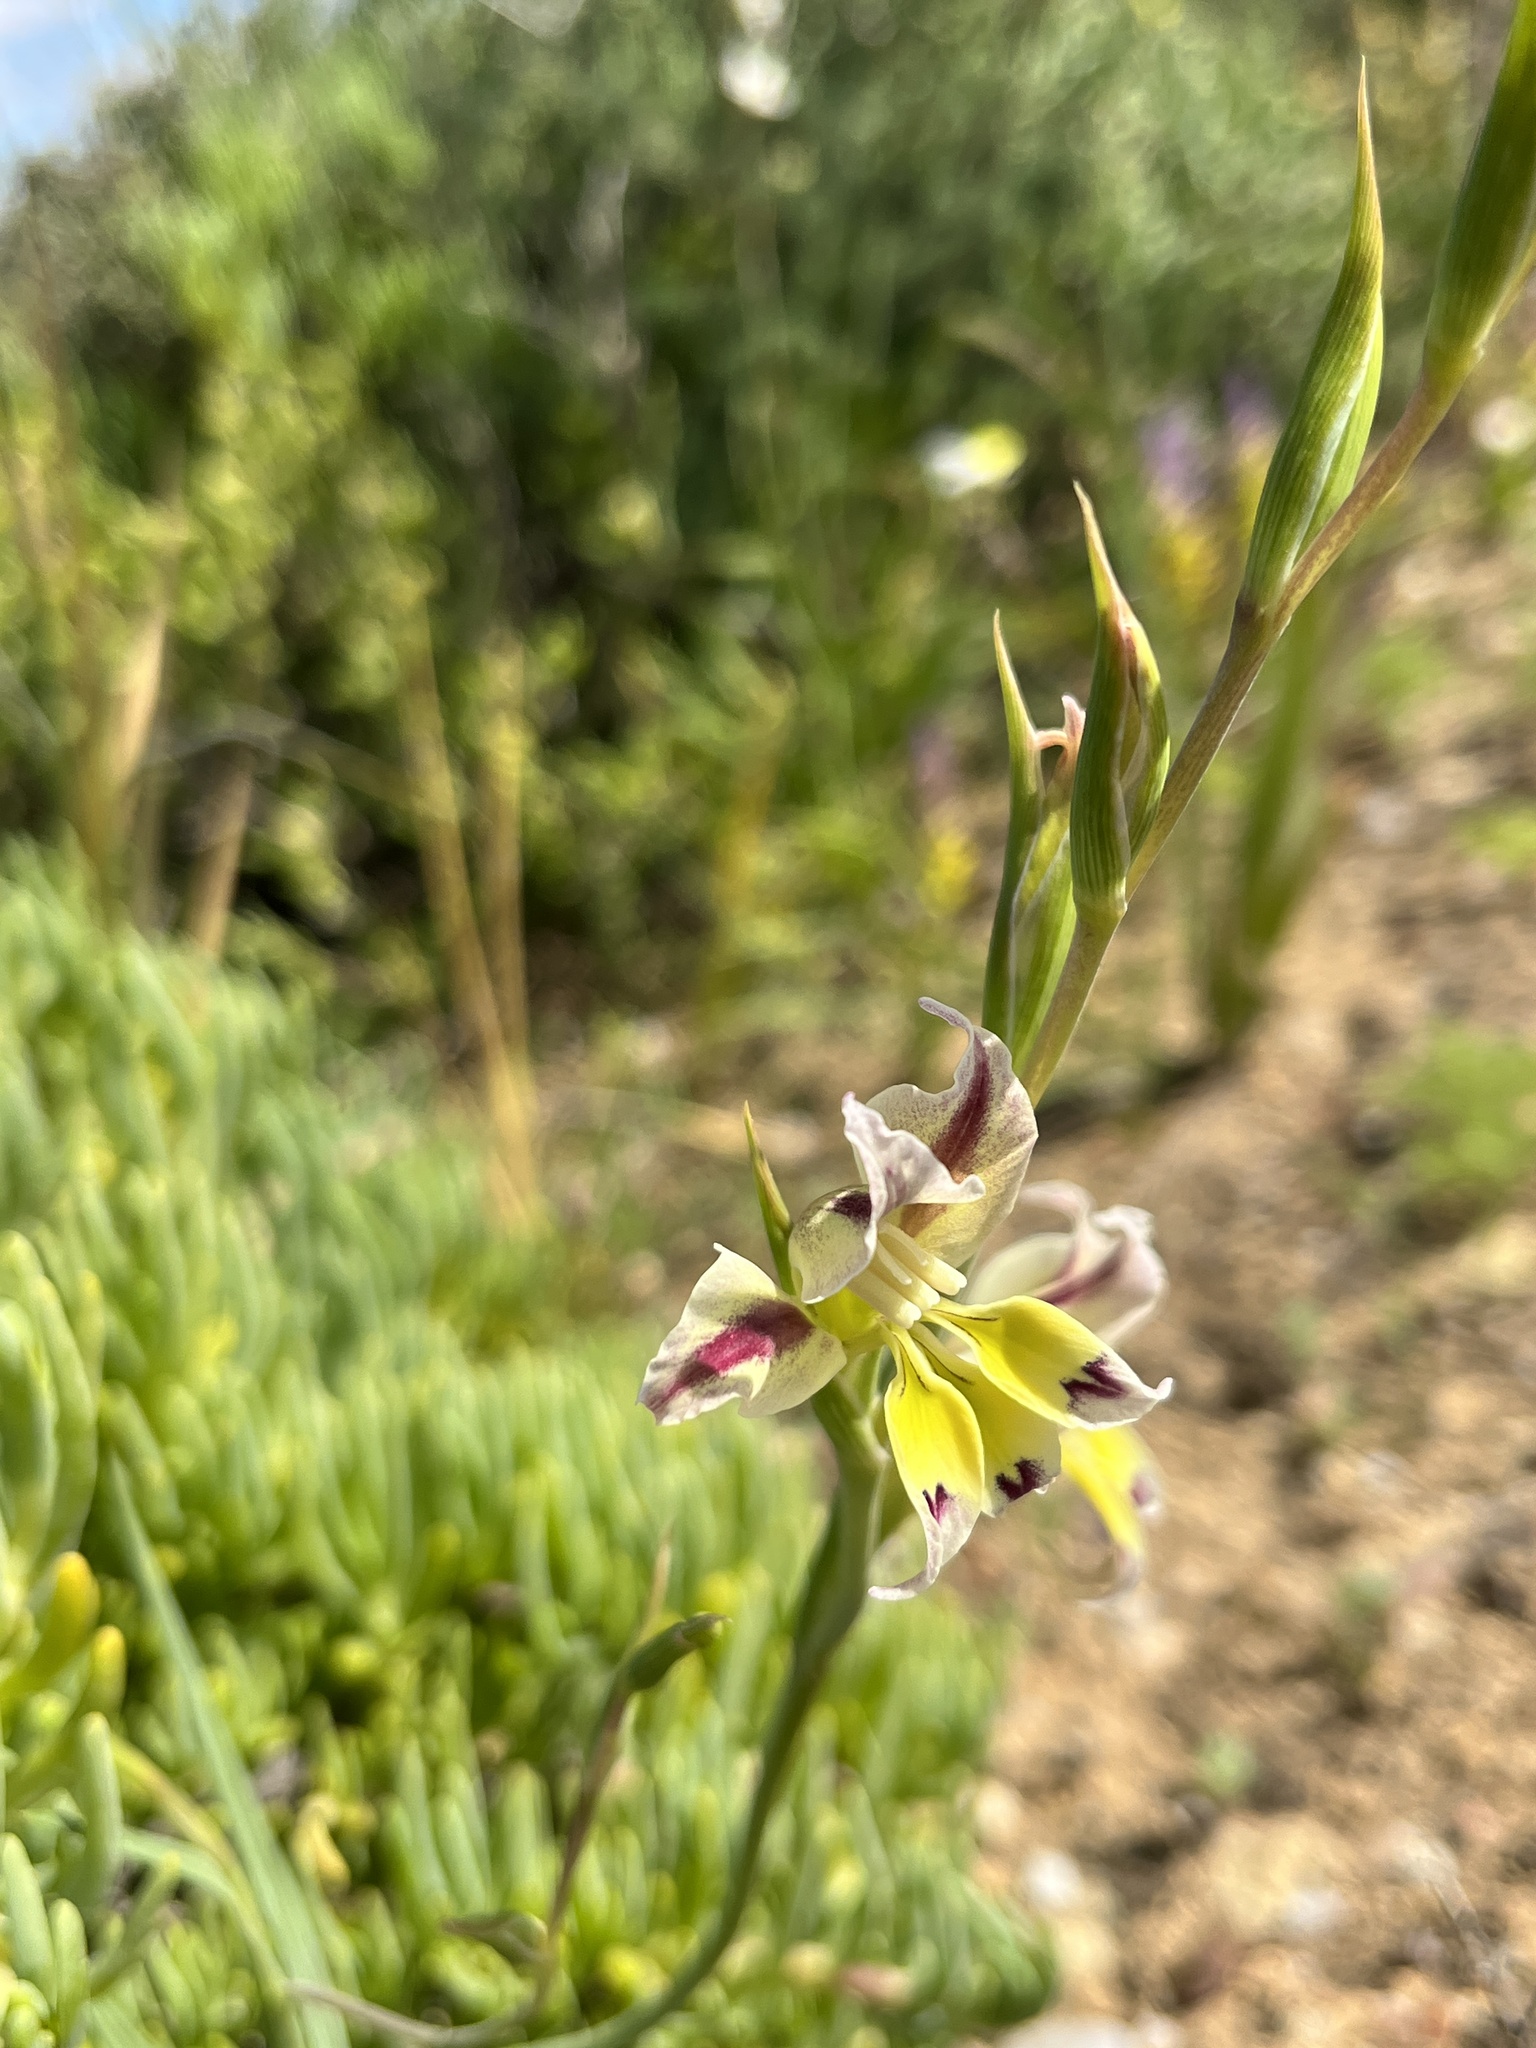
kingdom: Plantae
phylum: Tracheophyta
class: Liliopsida
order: Asparagales
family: Iridaceae
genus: Gladiolus
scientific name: Gladiolus scullyi
